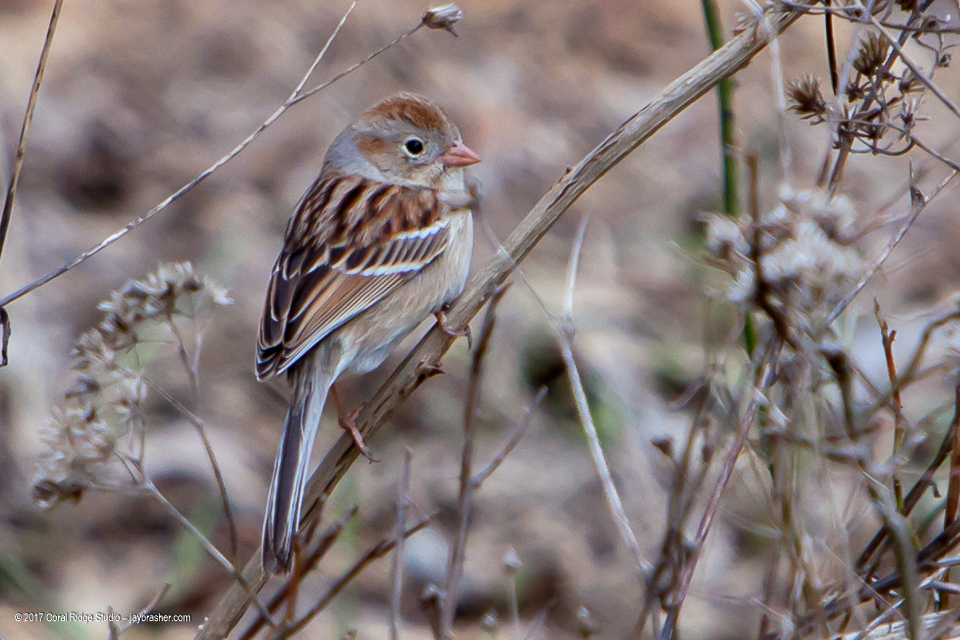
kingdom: Animalia
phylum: Chordata
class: Aves
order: Passeriformes
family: Passerellidae
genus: Spizella
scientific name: Spizella pusilla
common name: Field sparrow
